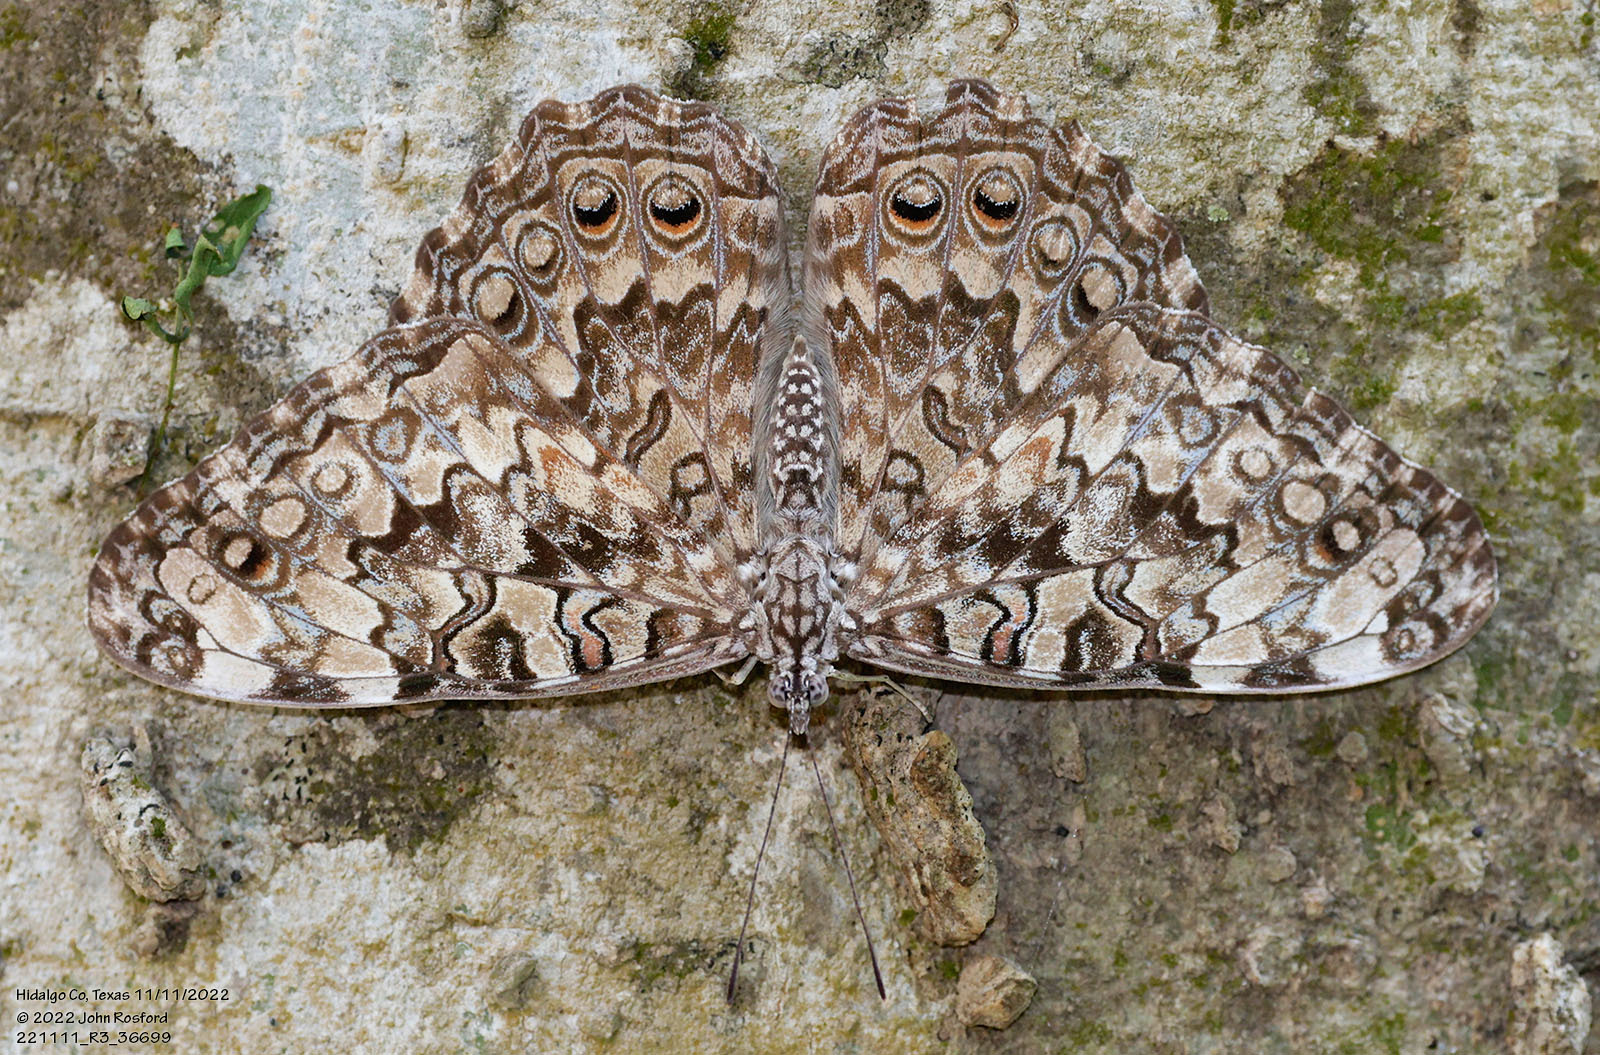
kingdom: Animalia
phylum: Arthropoda
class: Insecta
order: Lepidoptera
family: Nymphalidae
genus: Hamadryas
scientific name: Hamadryas februa
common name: Gray cracker
